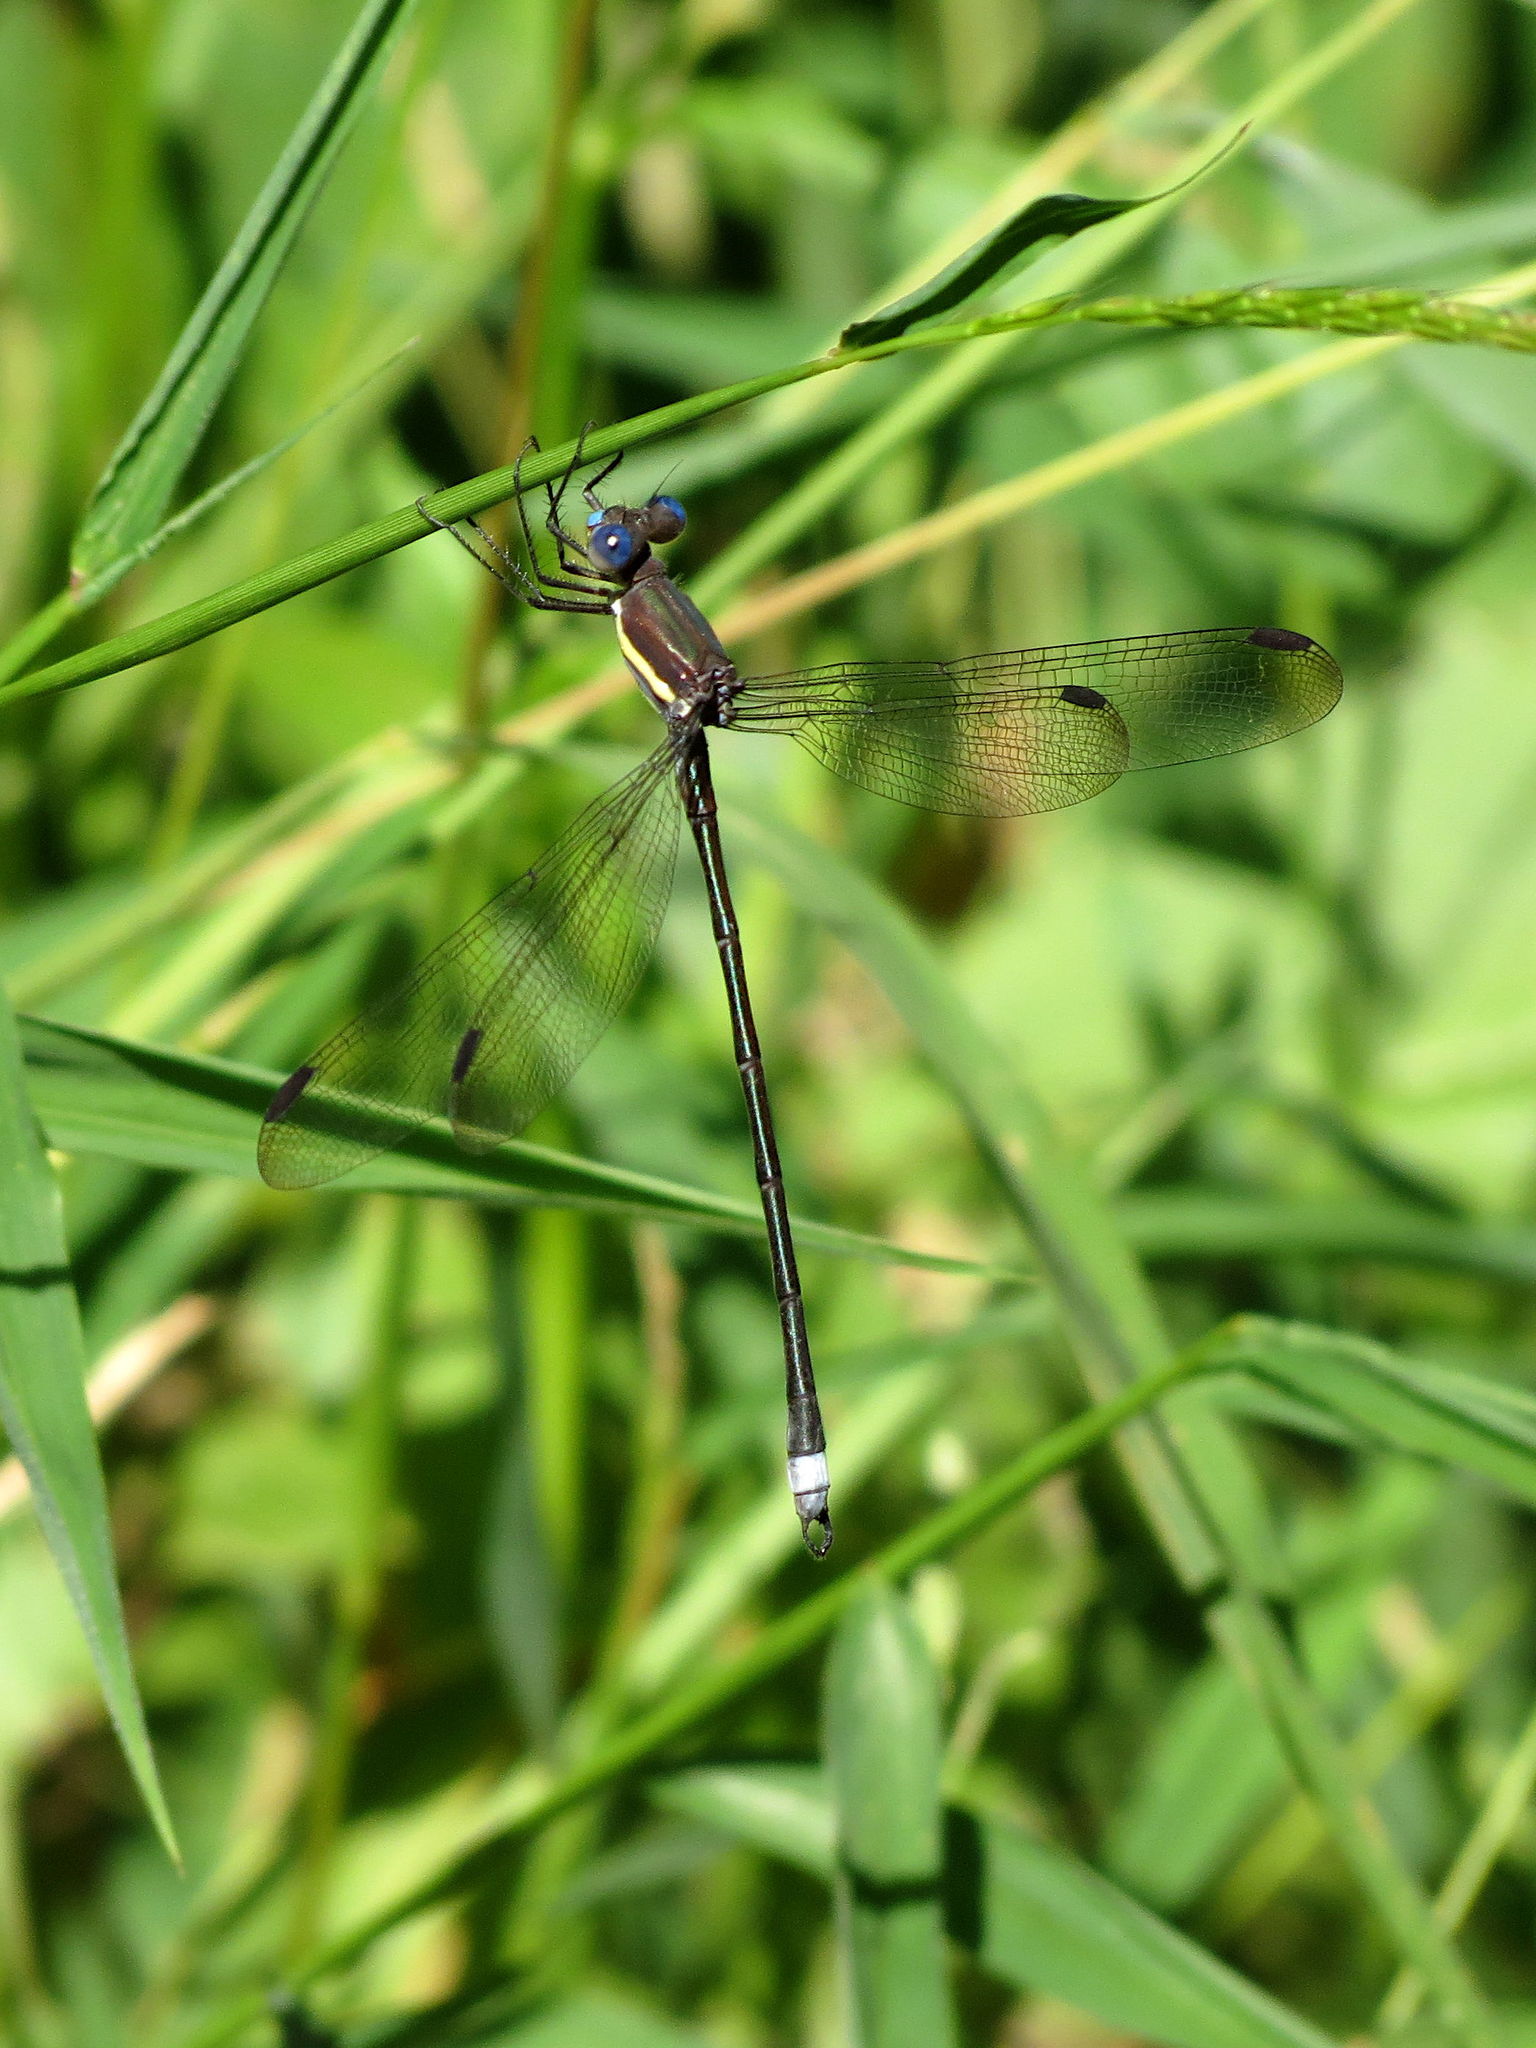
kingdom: Animalia
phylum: Arthropoda
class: Insecta
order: Odonata
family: Lestidae
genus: Archilestes
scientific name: Archilestes grandis
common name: Great spreadwing
